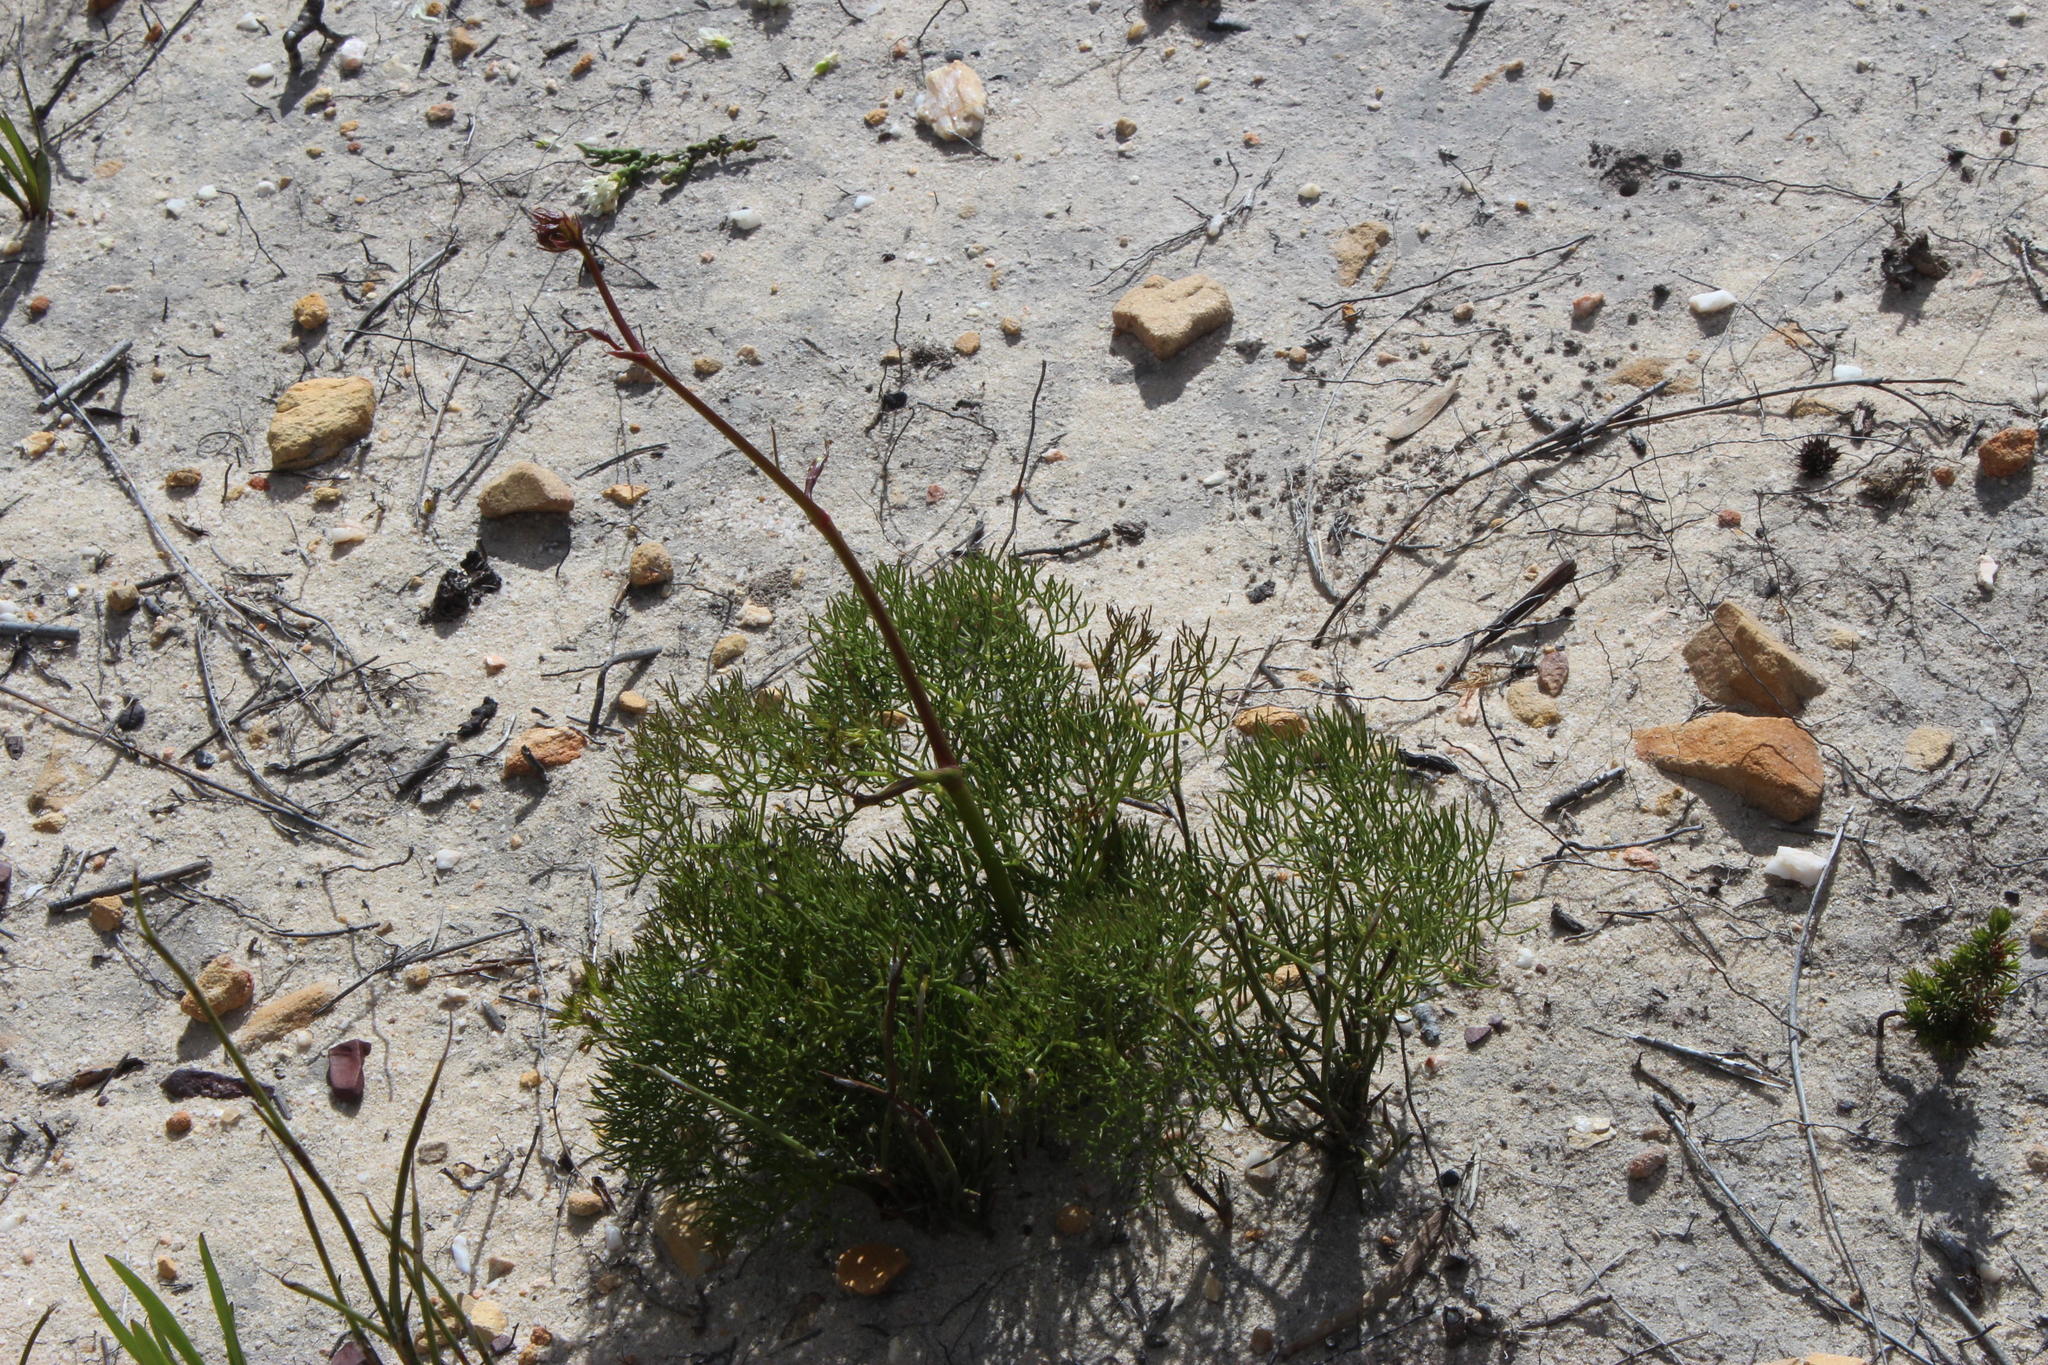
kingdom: Plantae
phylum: Tracheophyta
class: Magnoliopsida
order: Apiales
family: Apiaceae
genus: Nanobubon
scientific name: Nanobubon capillaceum
